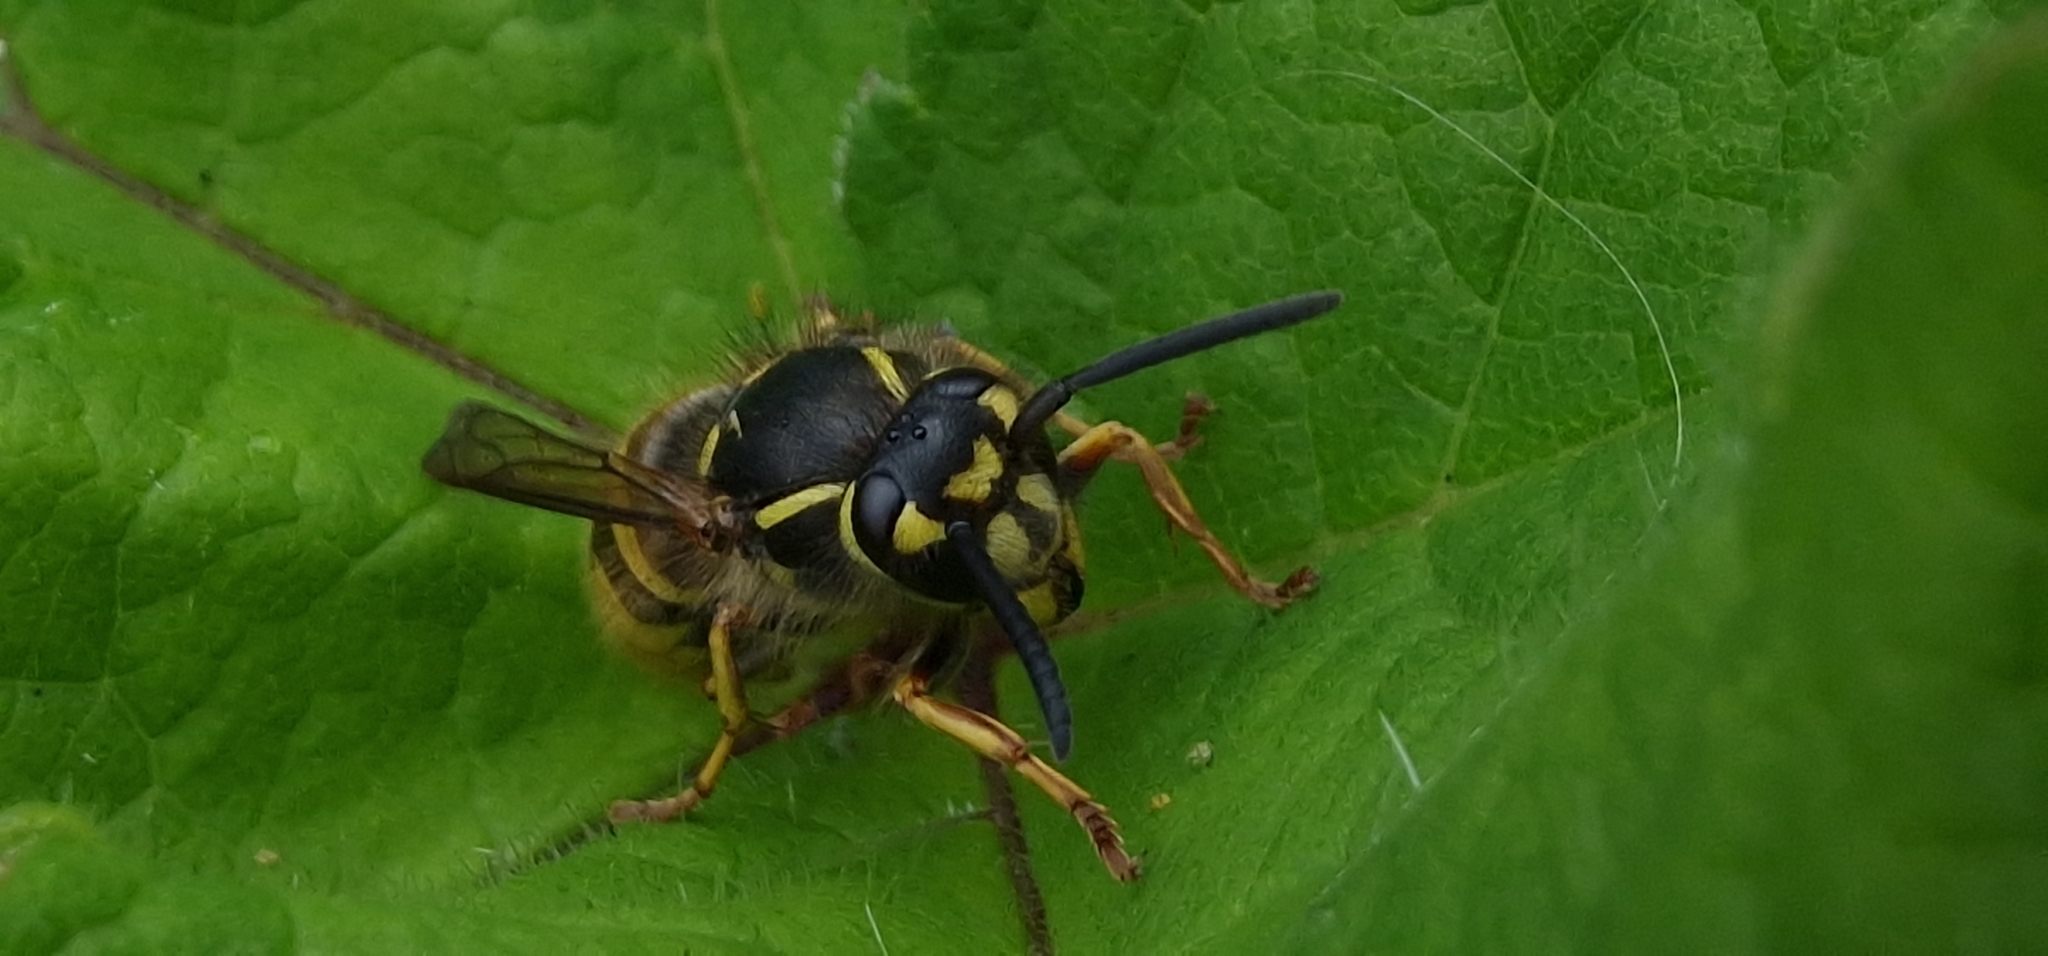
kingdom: Animalia
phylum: Arthropoda
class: Insecta
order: Hymenoptera
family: Vespidae
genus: Vespula
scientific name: Vespula vulgaris
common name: Common wasp
